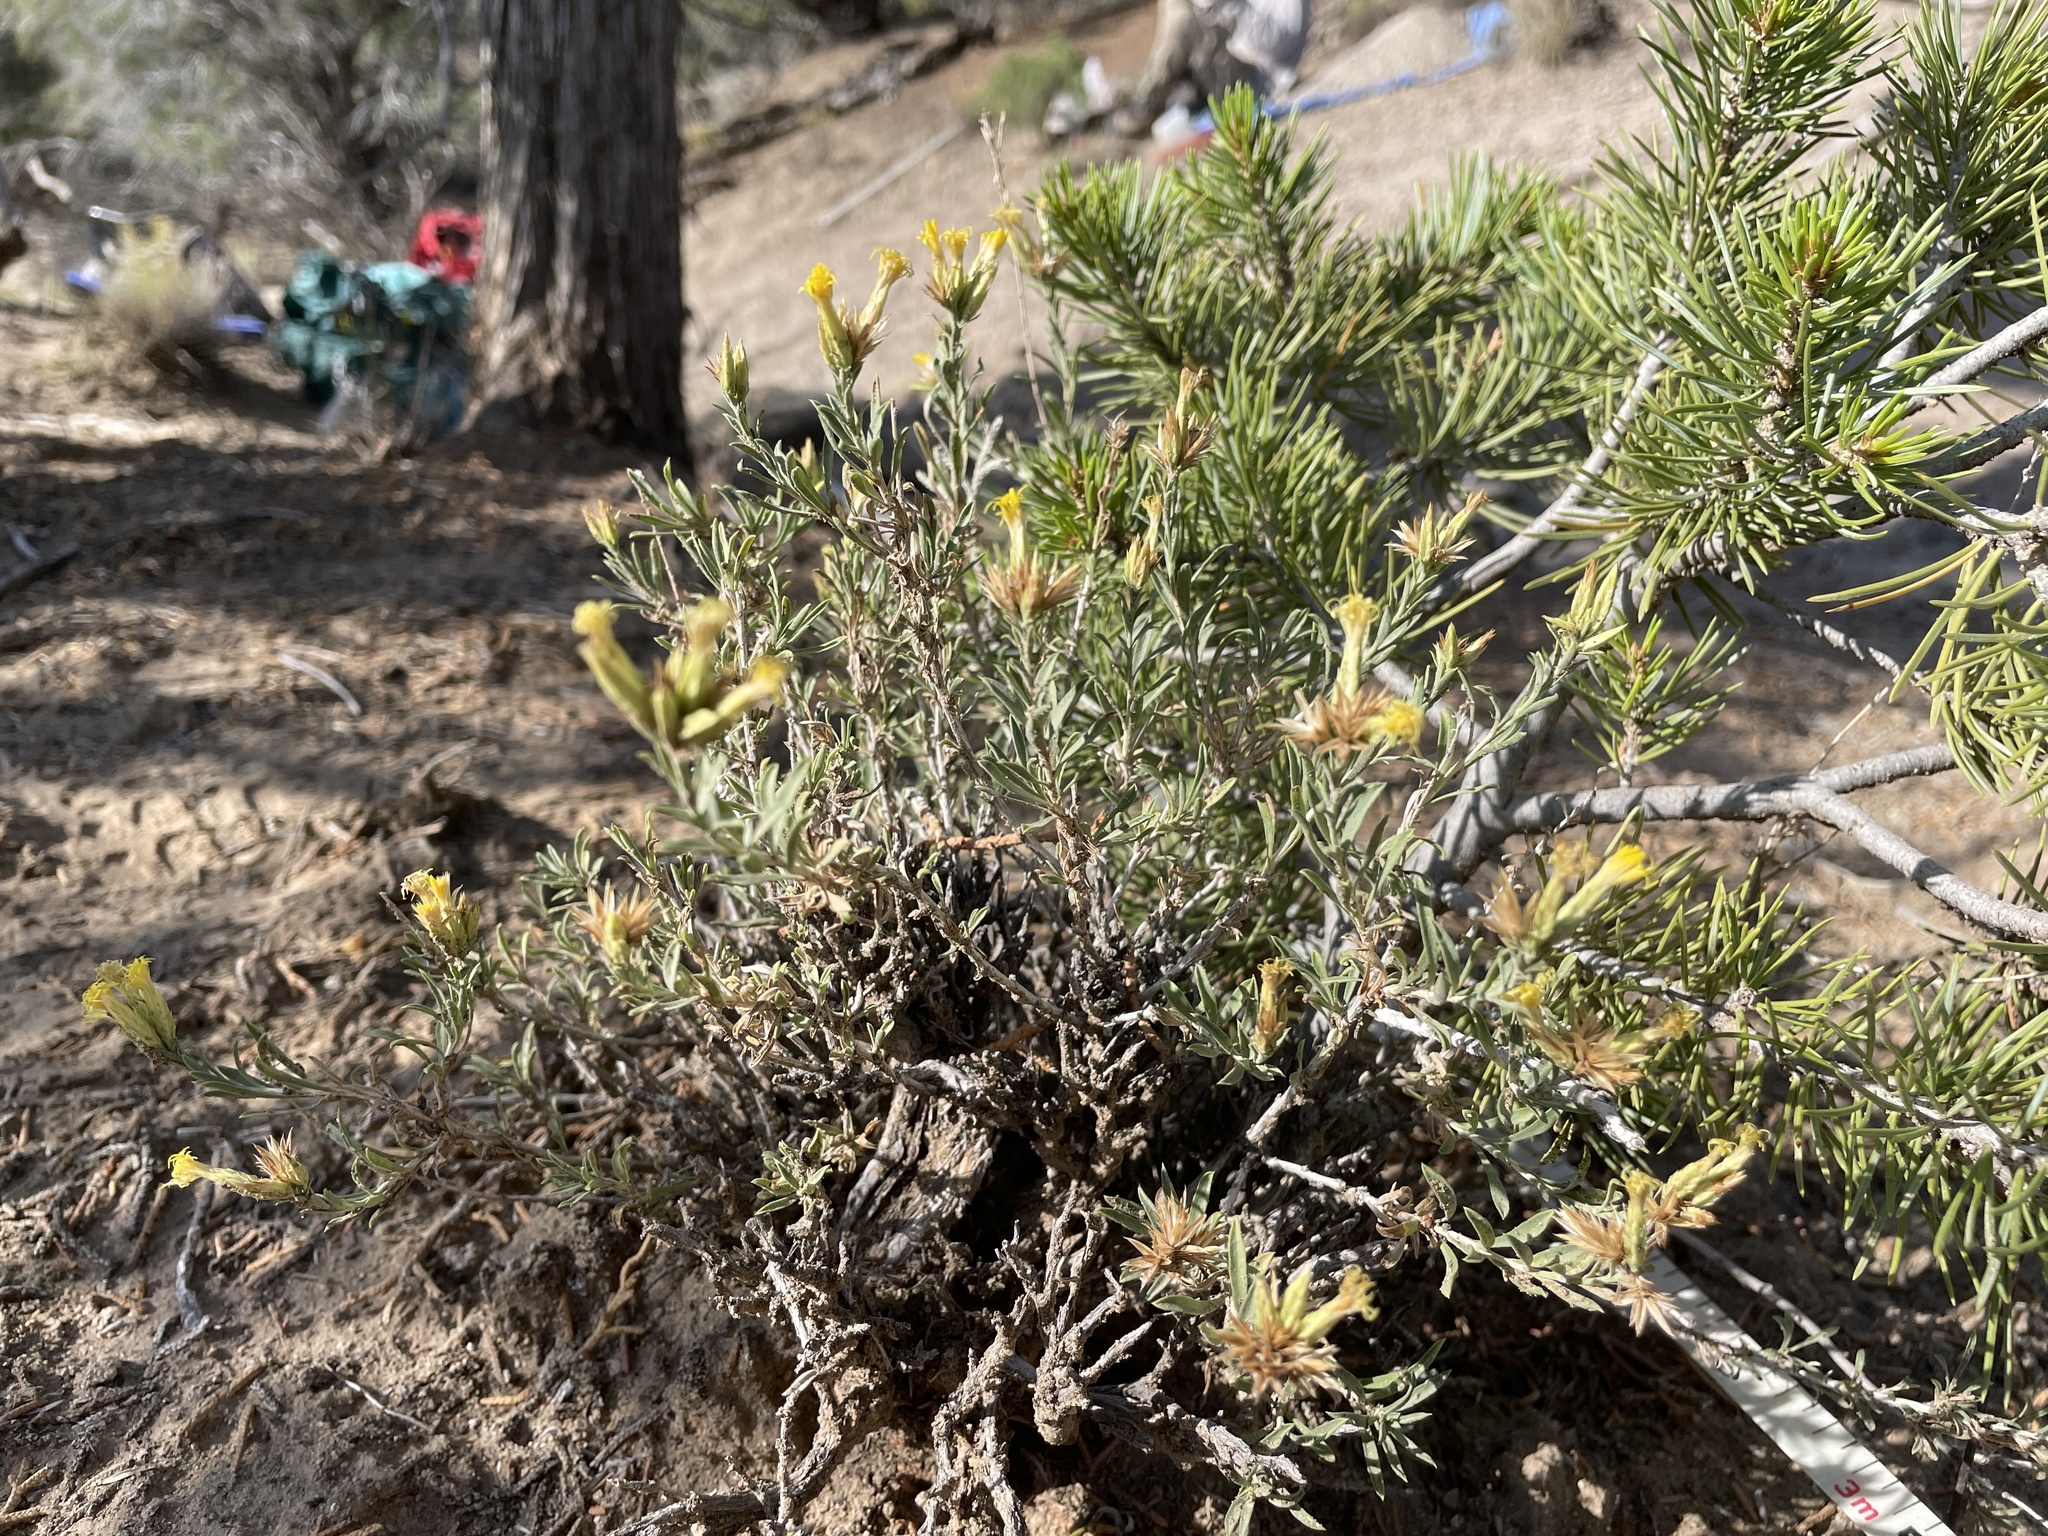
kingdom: Plantae
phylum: Tracheophyta
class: Magnoliopsida
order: Asterales
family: Asteraceae
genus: Chrysothamnus
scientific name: Chrysothamnus depressus
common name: Long-flower rabbitbrush
